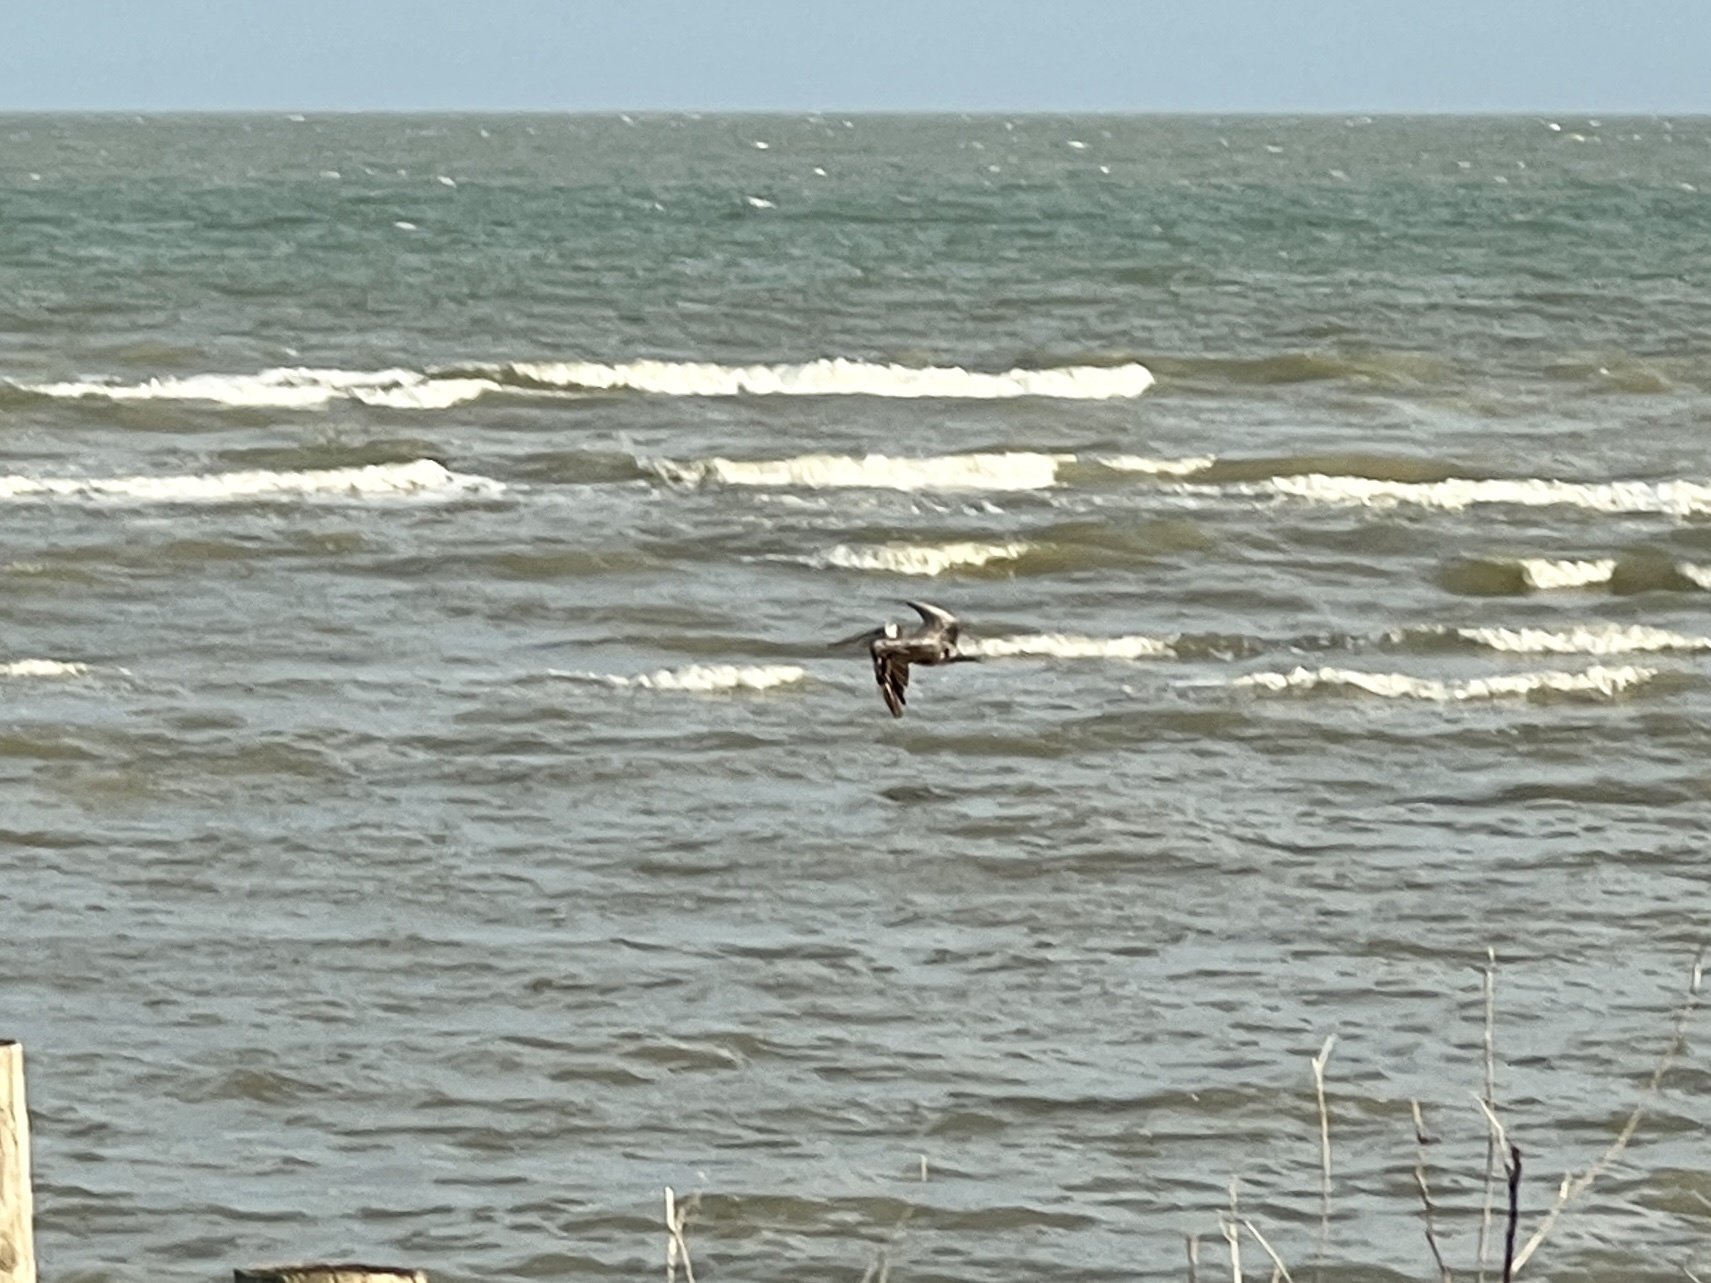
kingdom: Animalia
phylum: Chordata
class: Aves
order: Pelecaniformes
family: Pelecanidae
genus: Pelecanus
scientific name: Pelecanus occidentalis
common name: Brown pelican
